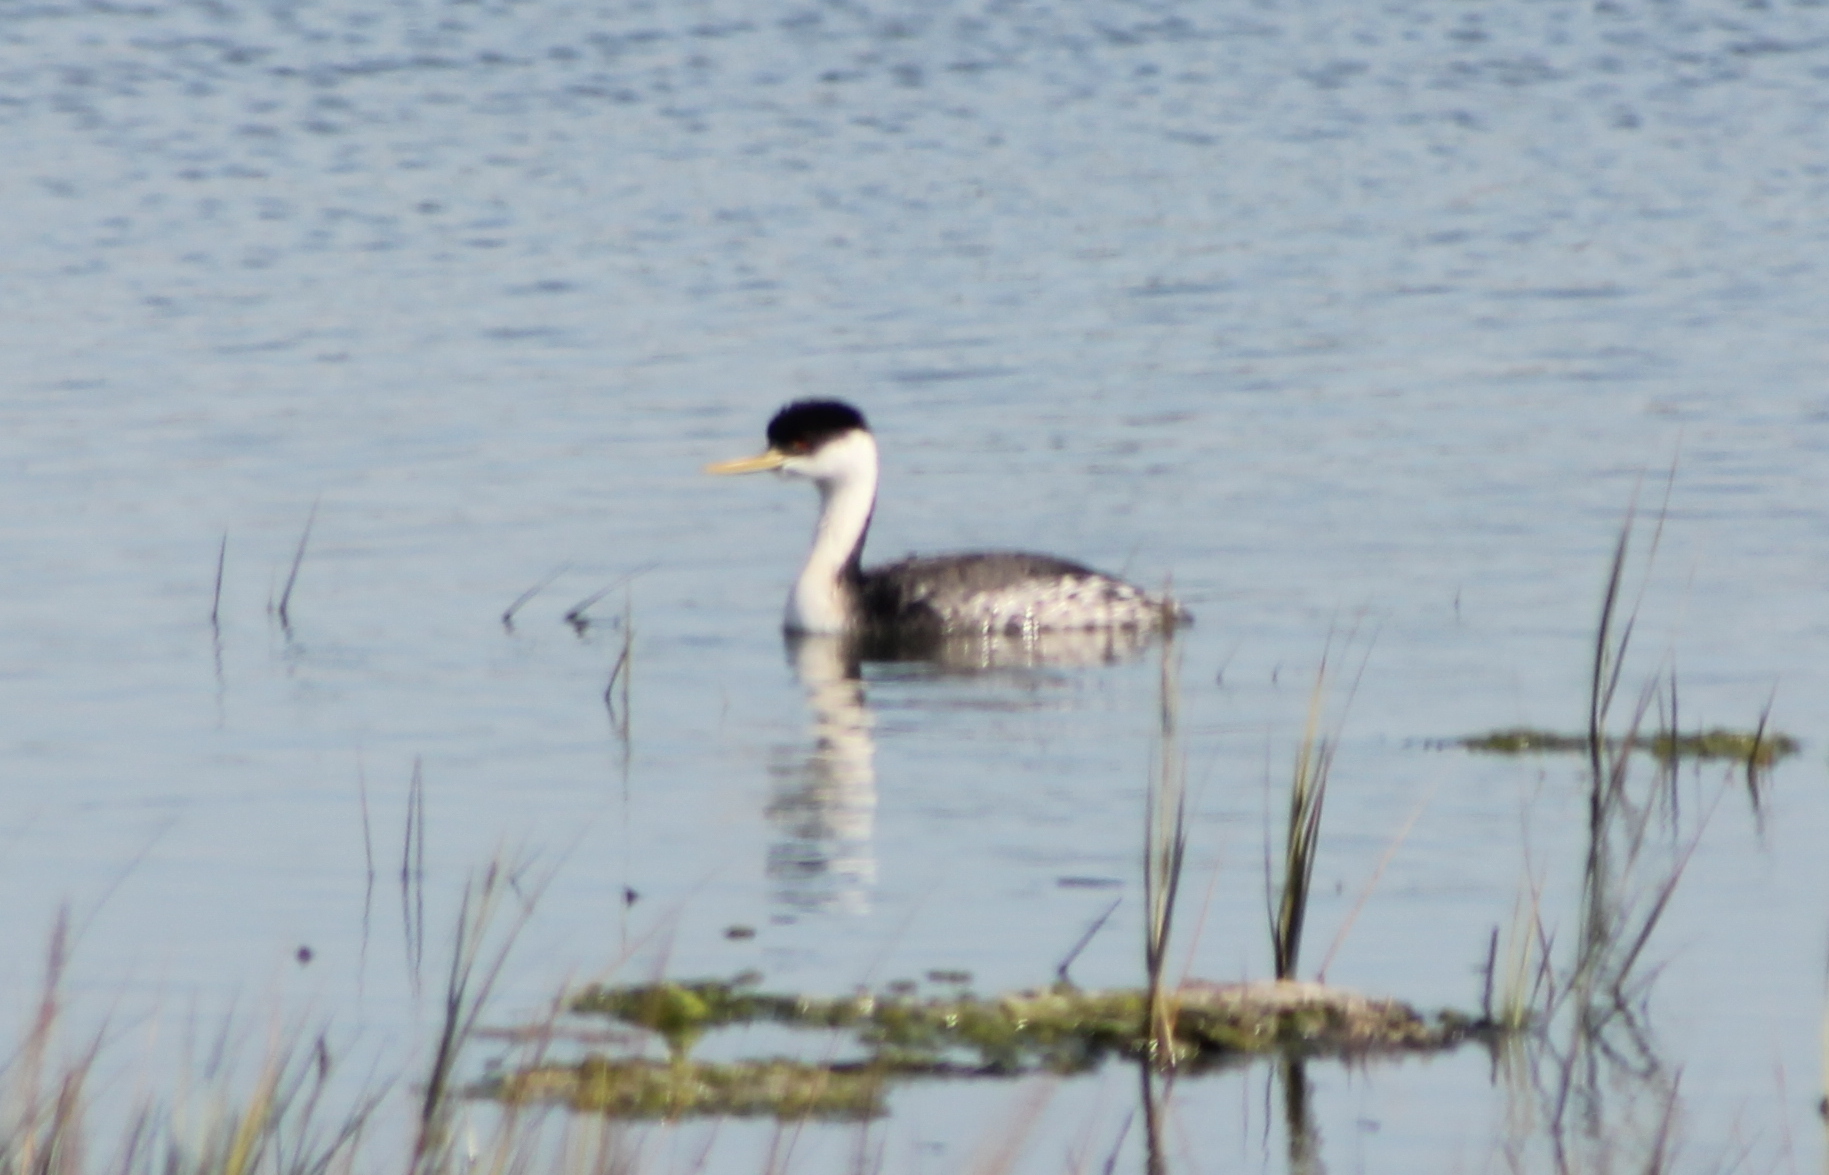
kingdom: Animalia
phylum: Chordata
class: Aves
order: Podicipediformes
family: Podicipedidae
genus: Aechmophorus
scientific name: Aechmophorus occidentalis
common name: Western grebe
